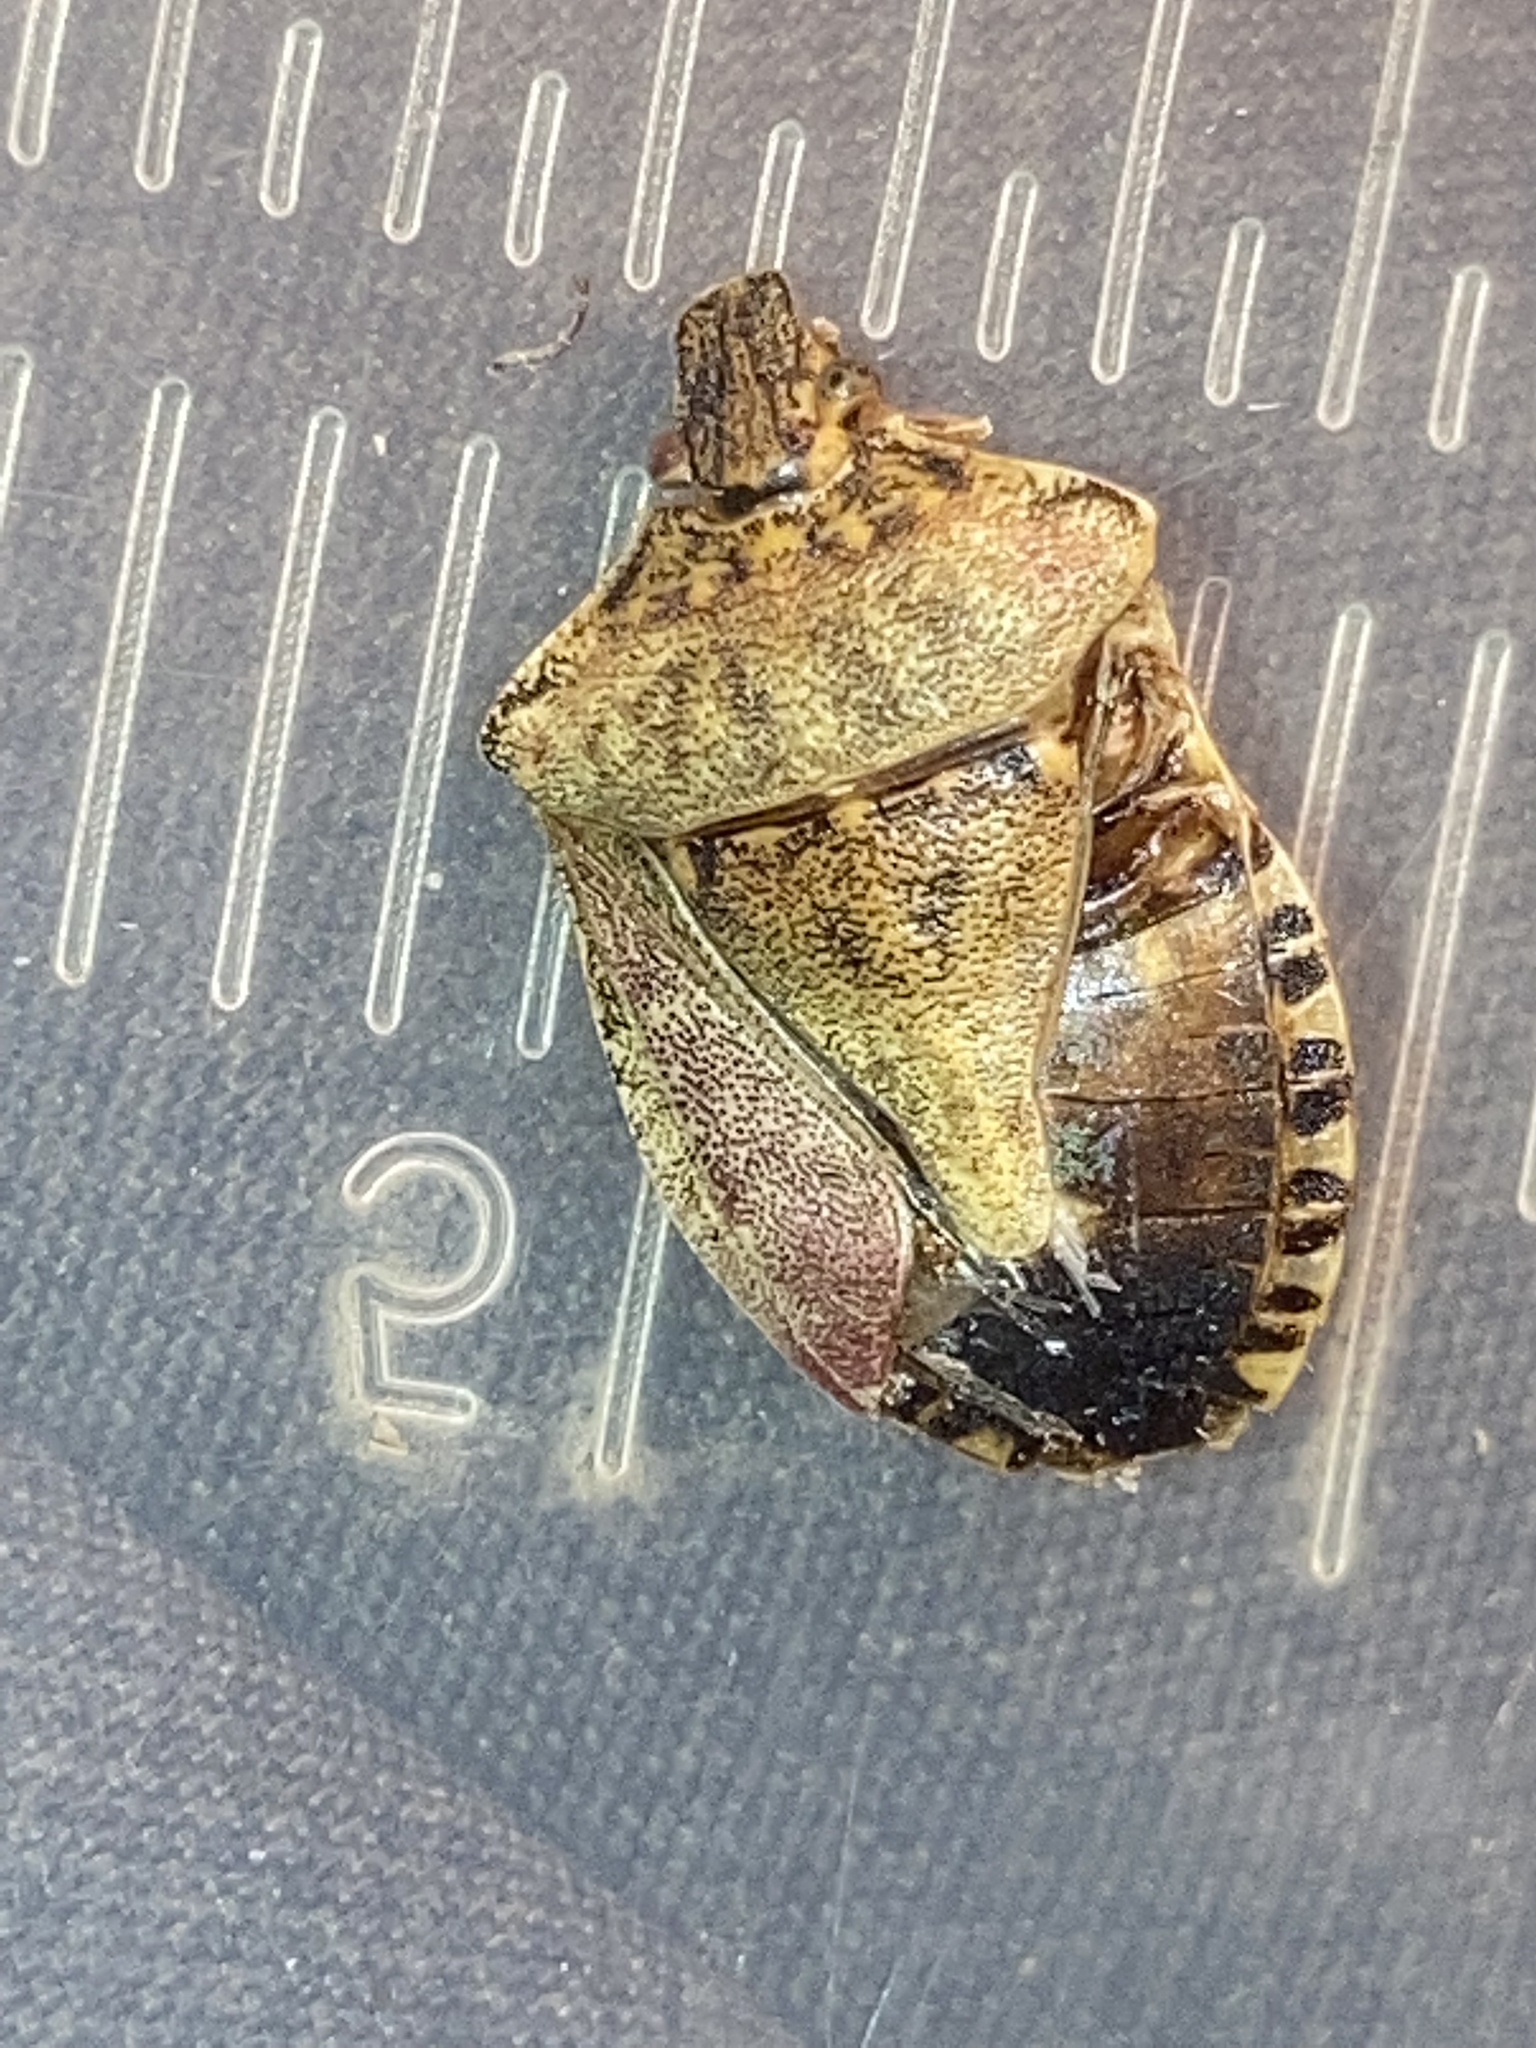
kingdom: Animalia
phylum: Arthropoda
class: Insecta
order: Hemiptera
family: Pentatomidae
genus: Halyomorpha
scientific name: Halyomorpha halys
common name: Brown marmorated stink bug
